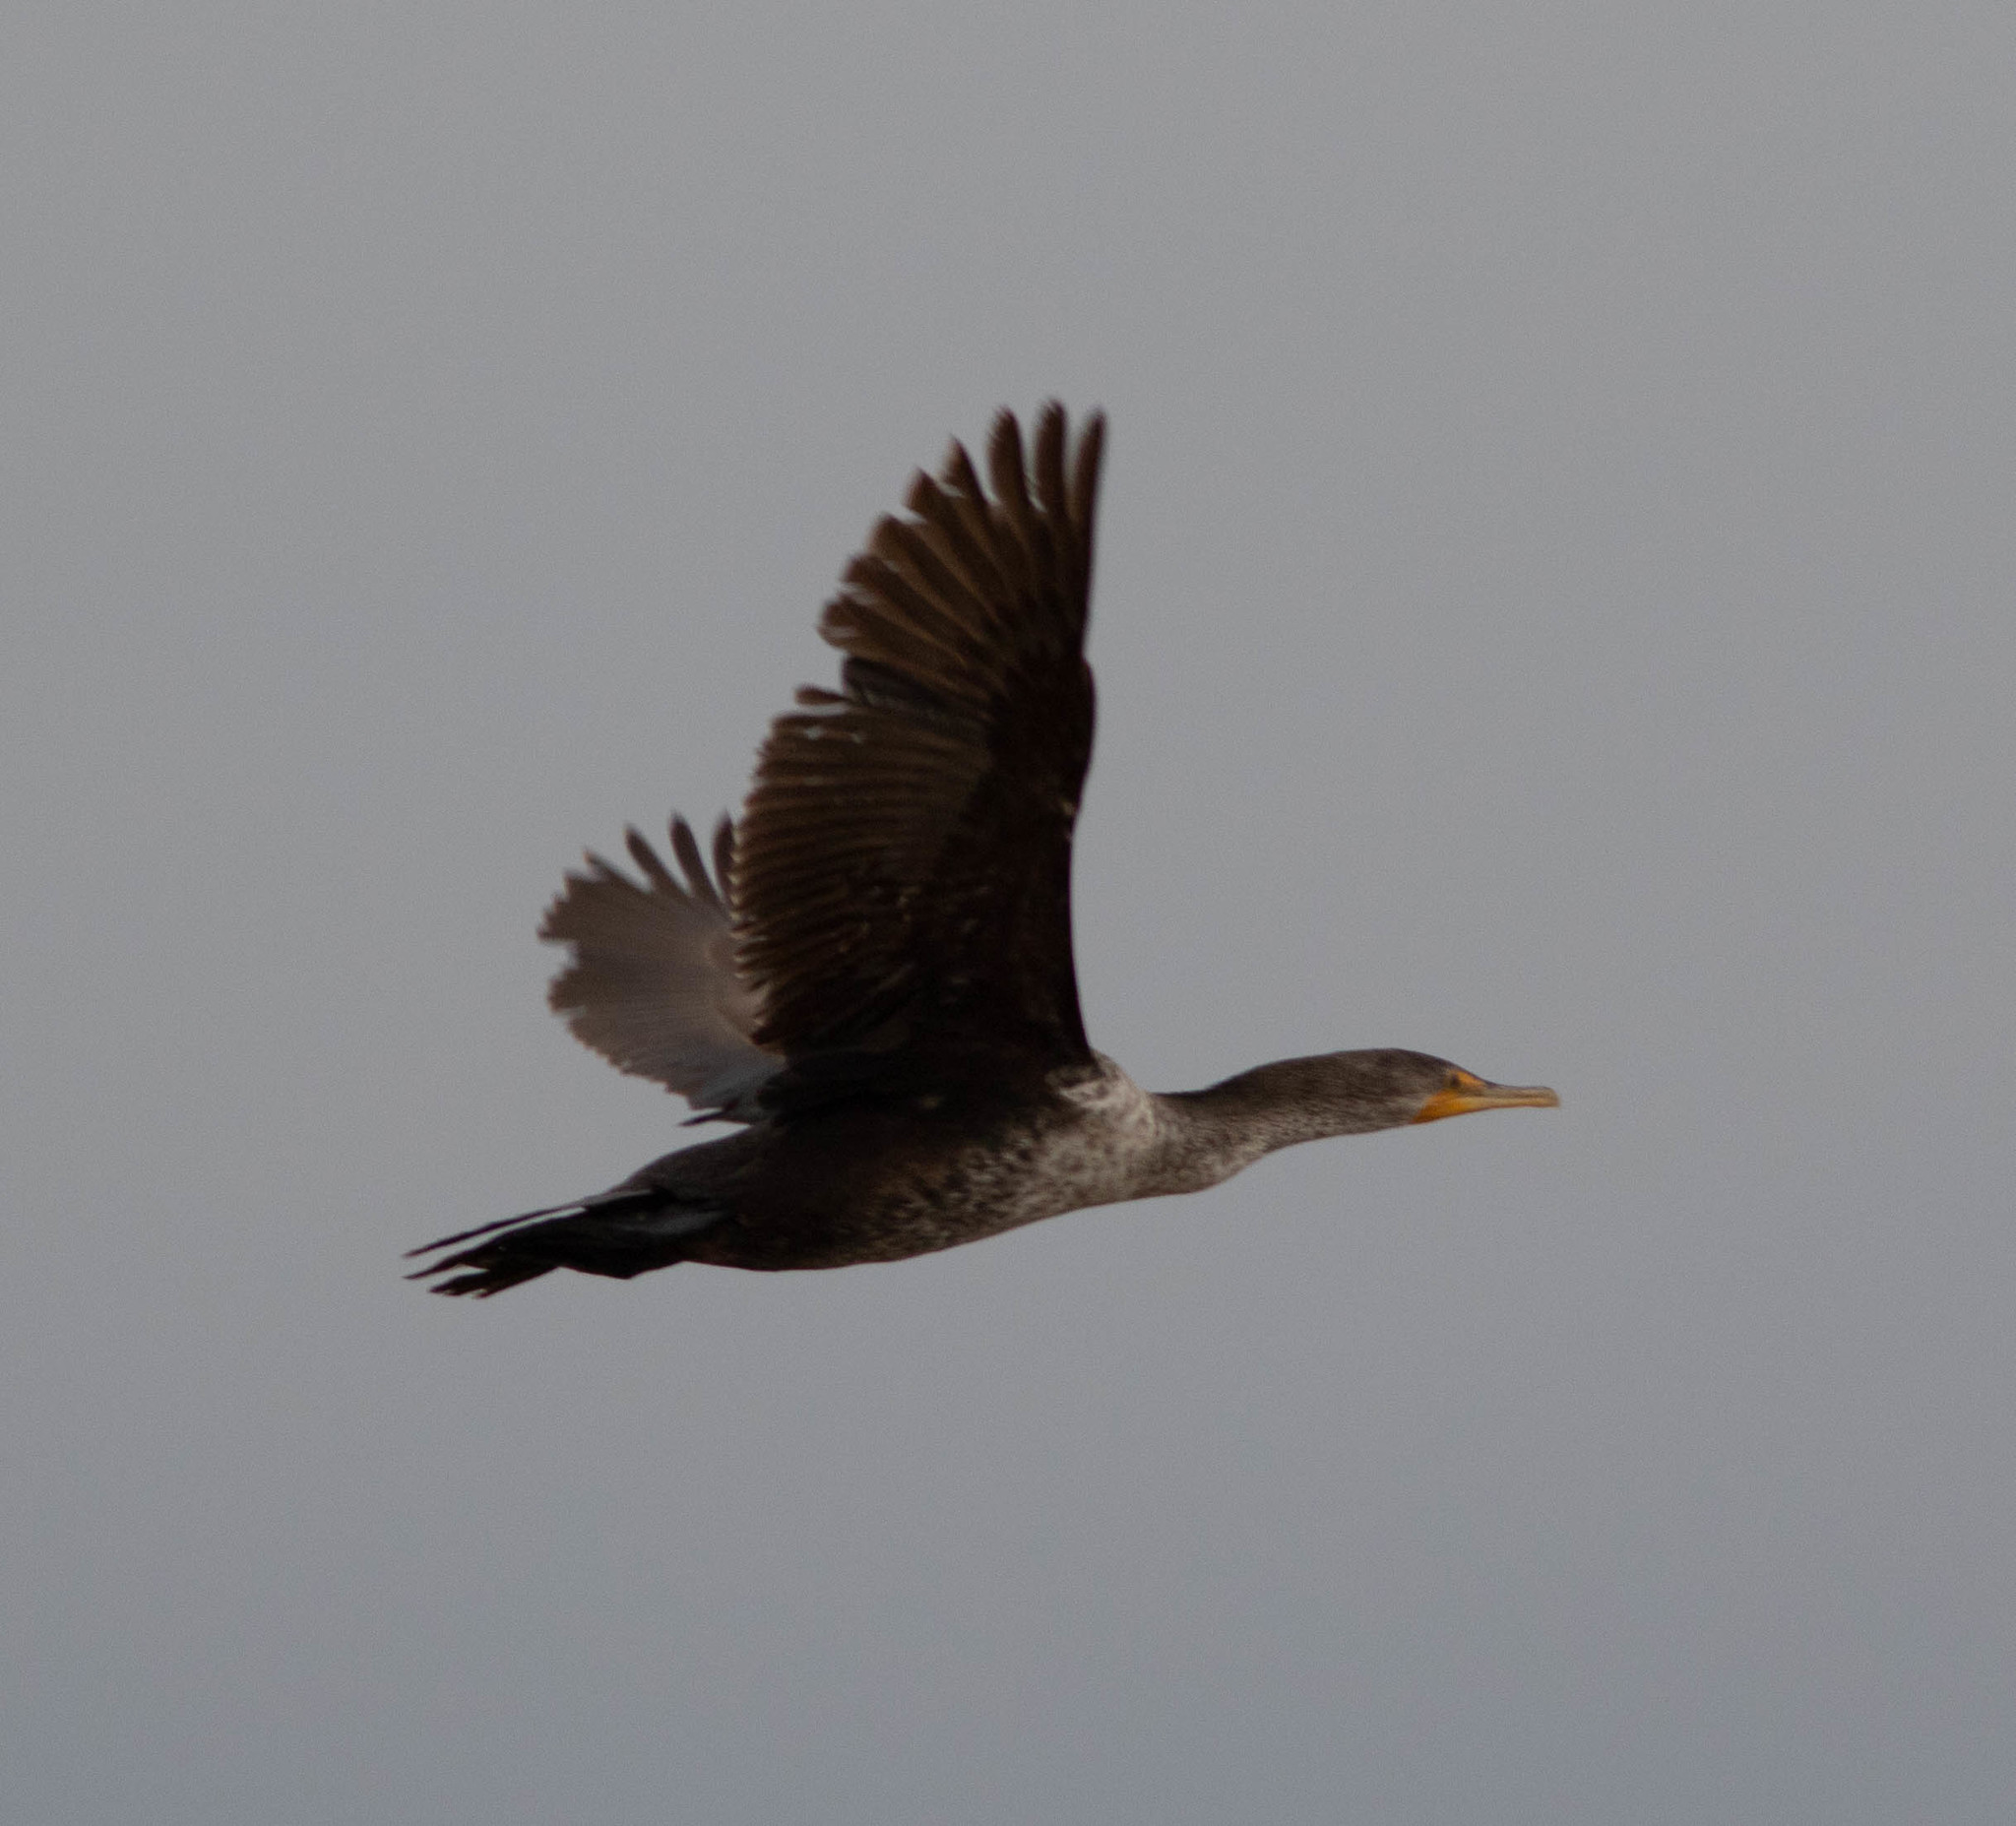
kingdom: Animalia
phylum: Chordata
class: Aves
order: Suliformes
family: Phalacrocoracidae
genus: Phalacrocorax
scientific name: Phalacrocorax auritus
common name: Double-crested cormorant
